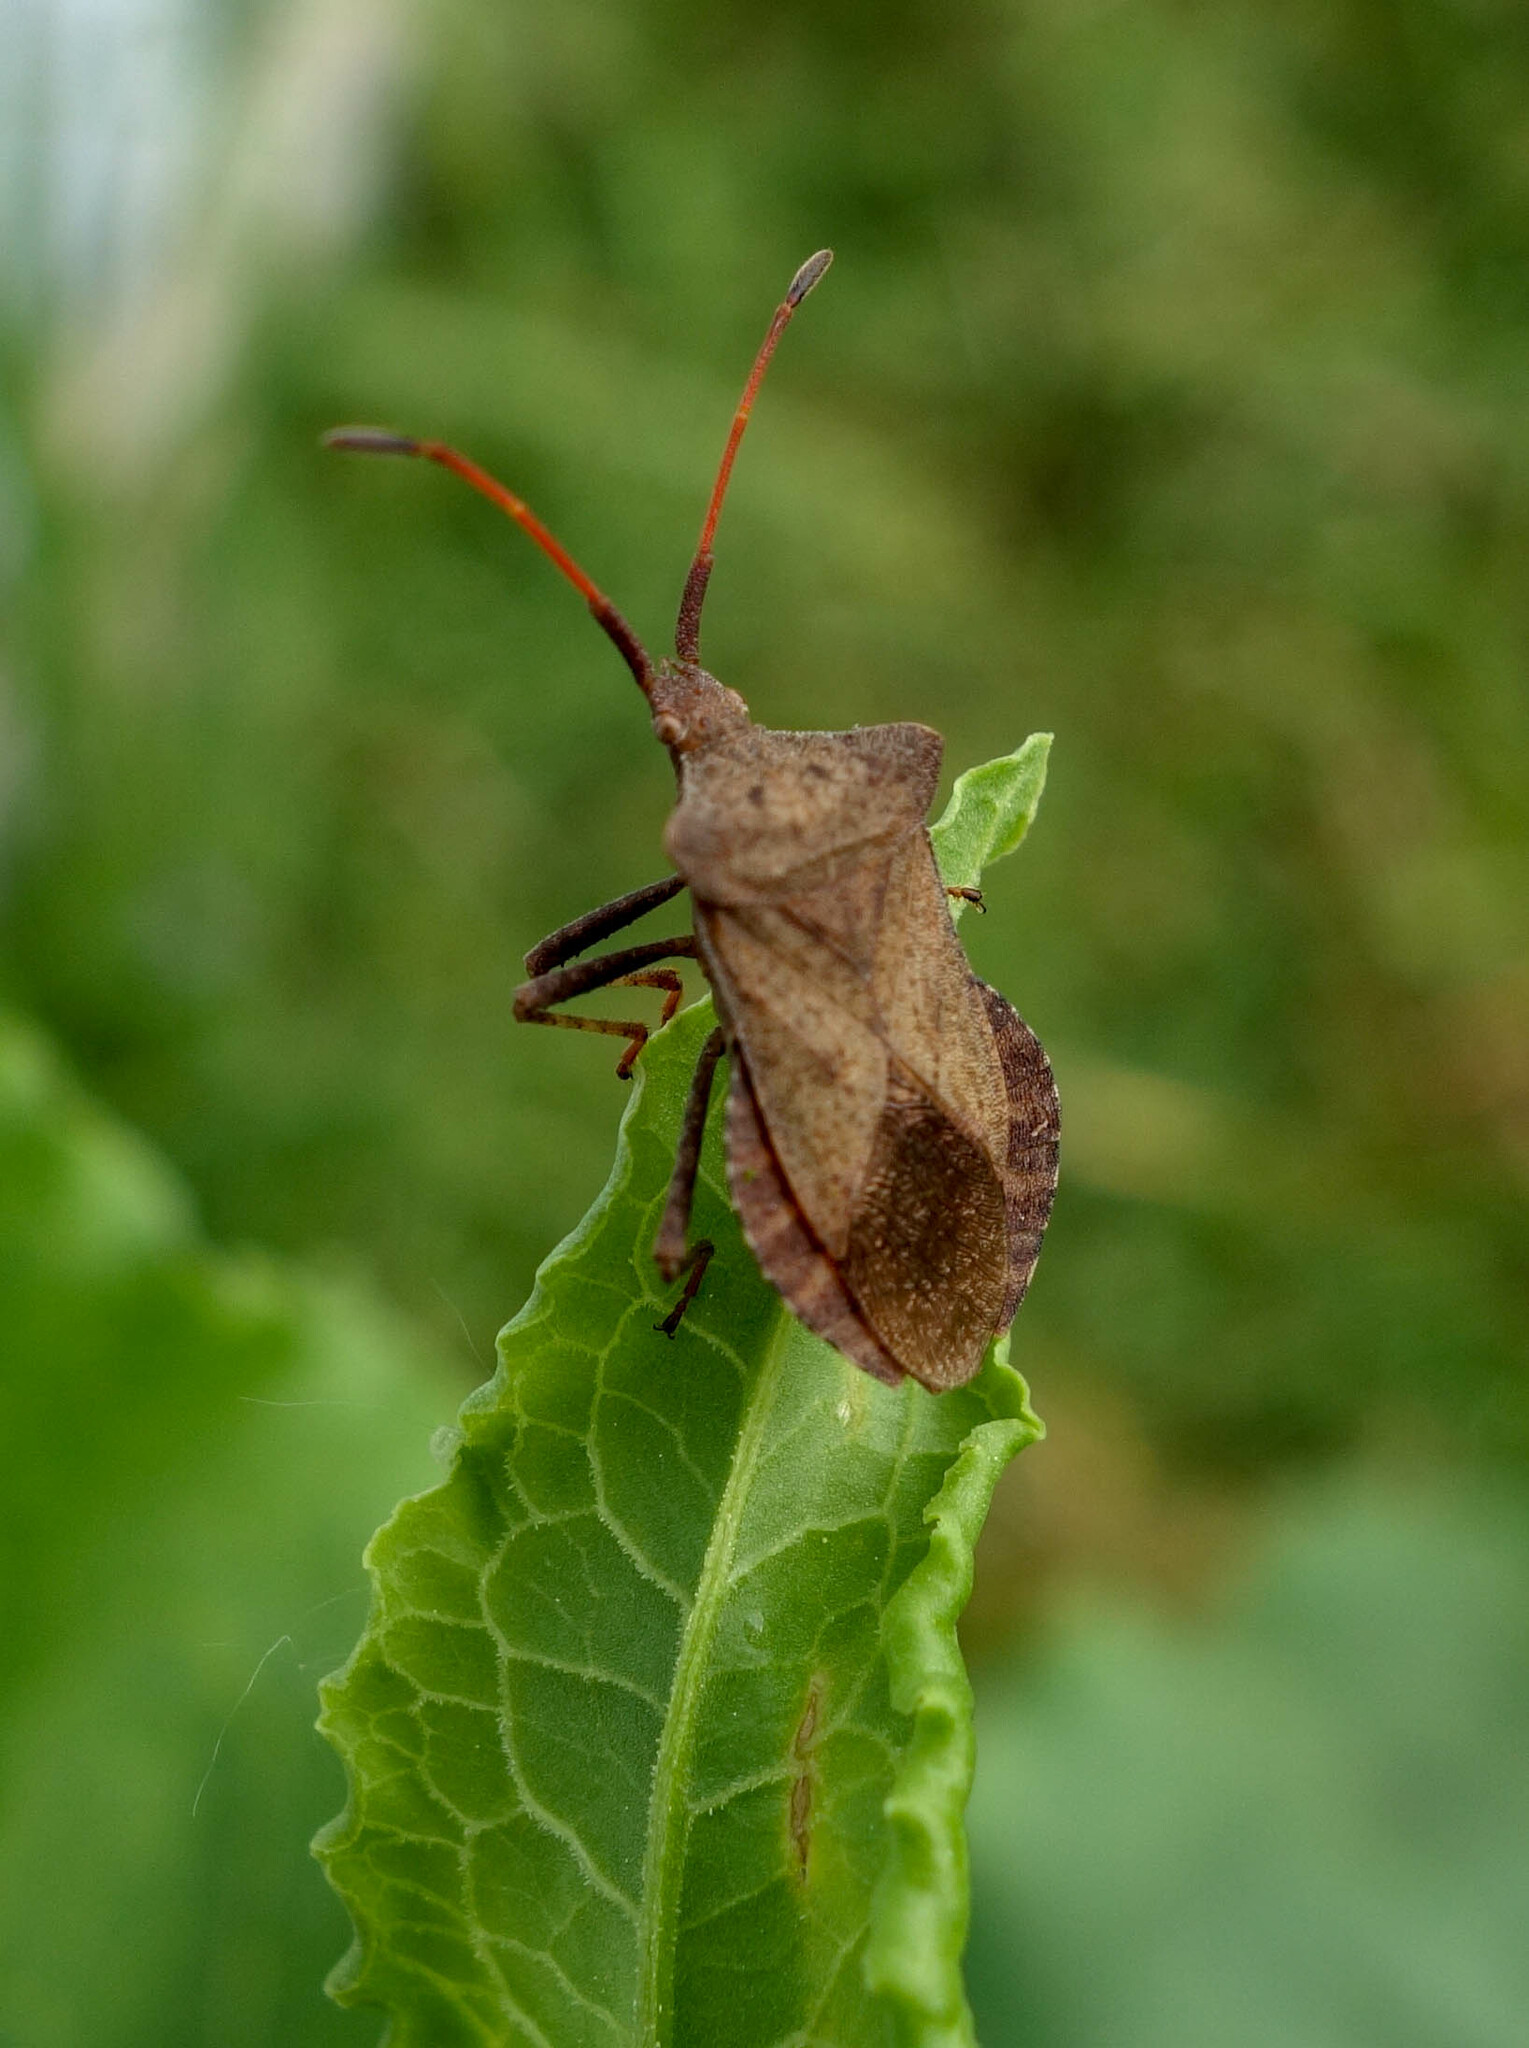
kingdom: Animalia
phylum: Arthropoda
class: Insecta
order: Hemiptera
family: Coreidae
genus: Coreus
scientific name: Coreus marginatus
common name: Dock bug
